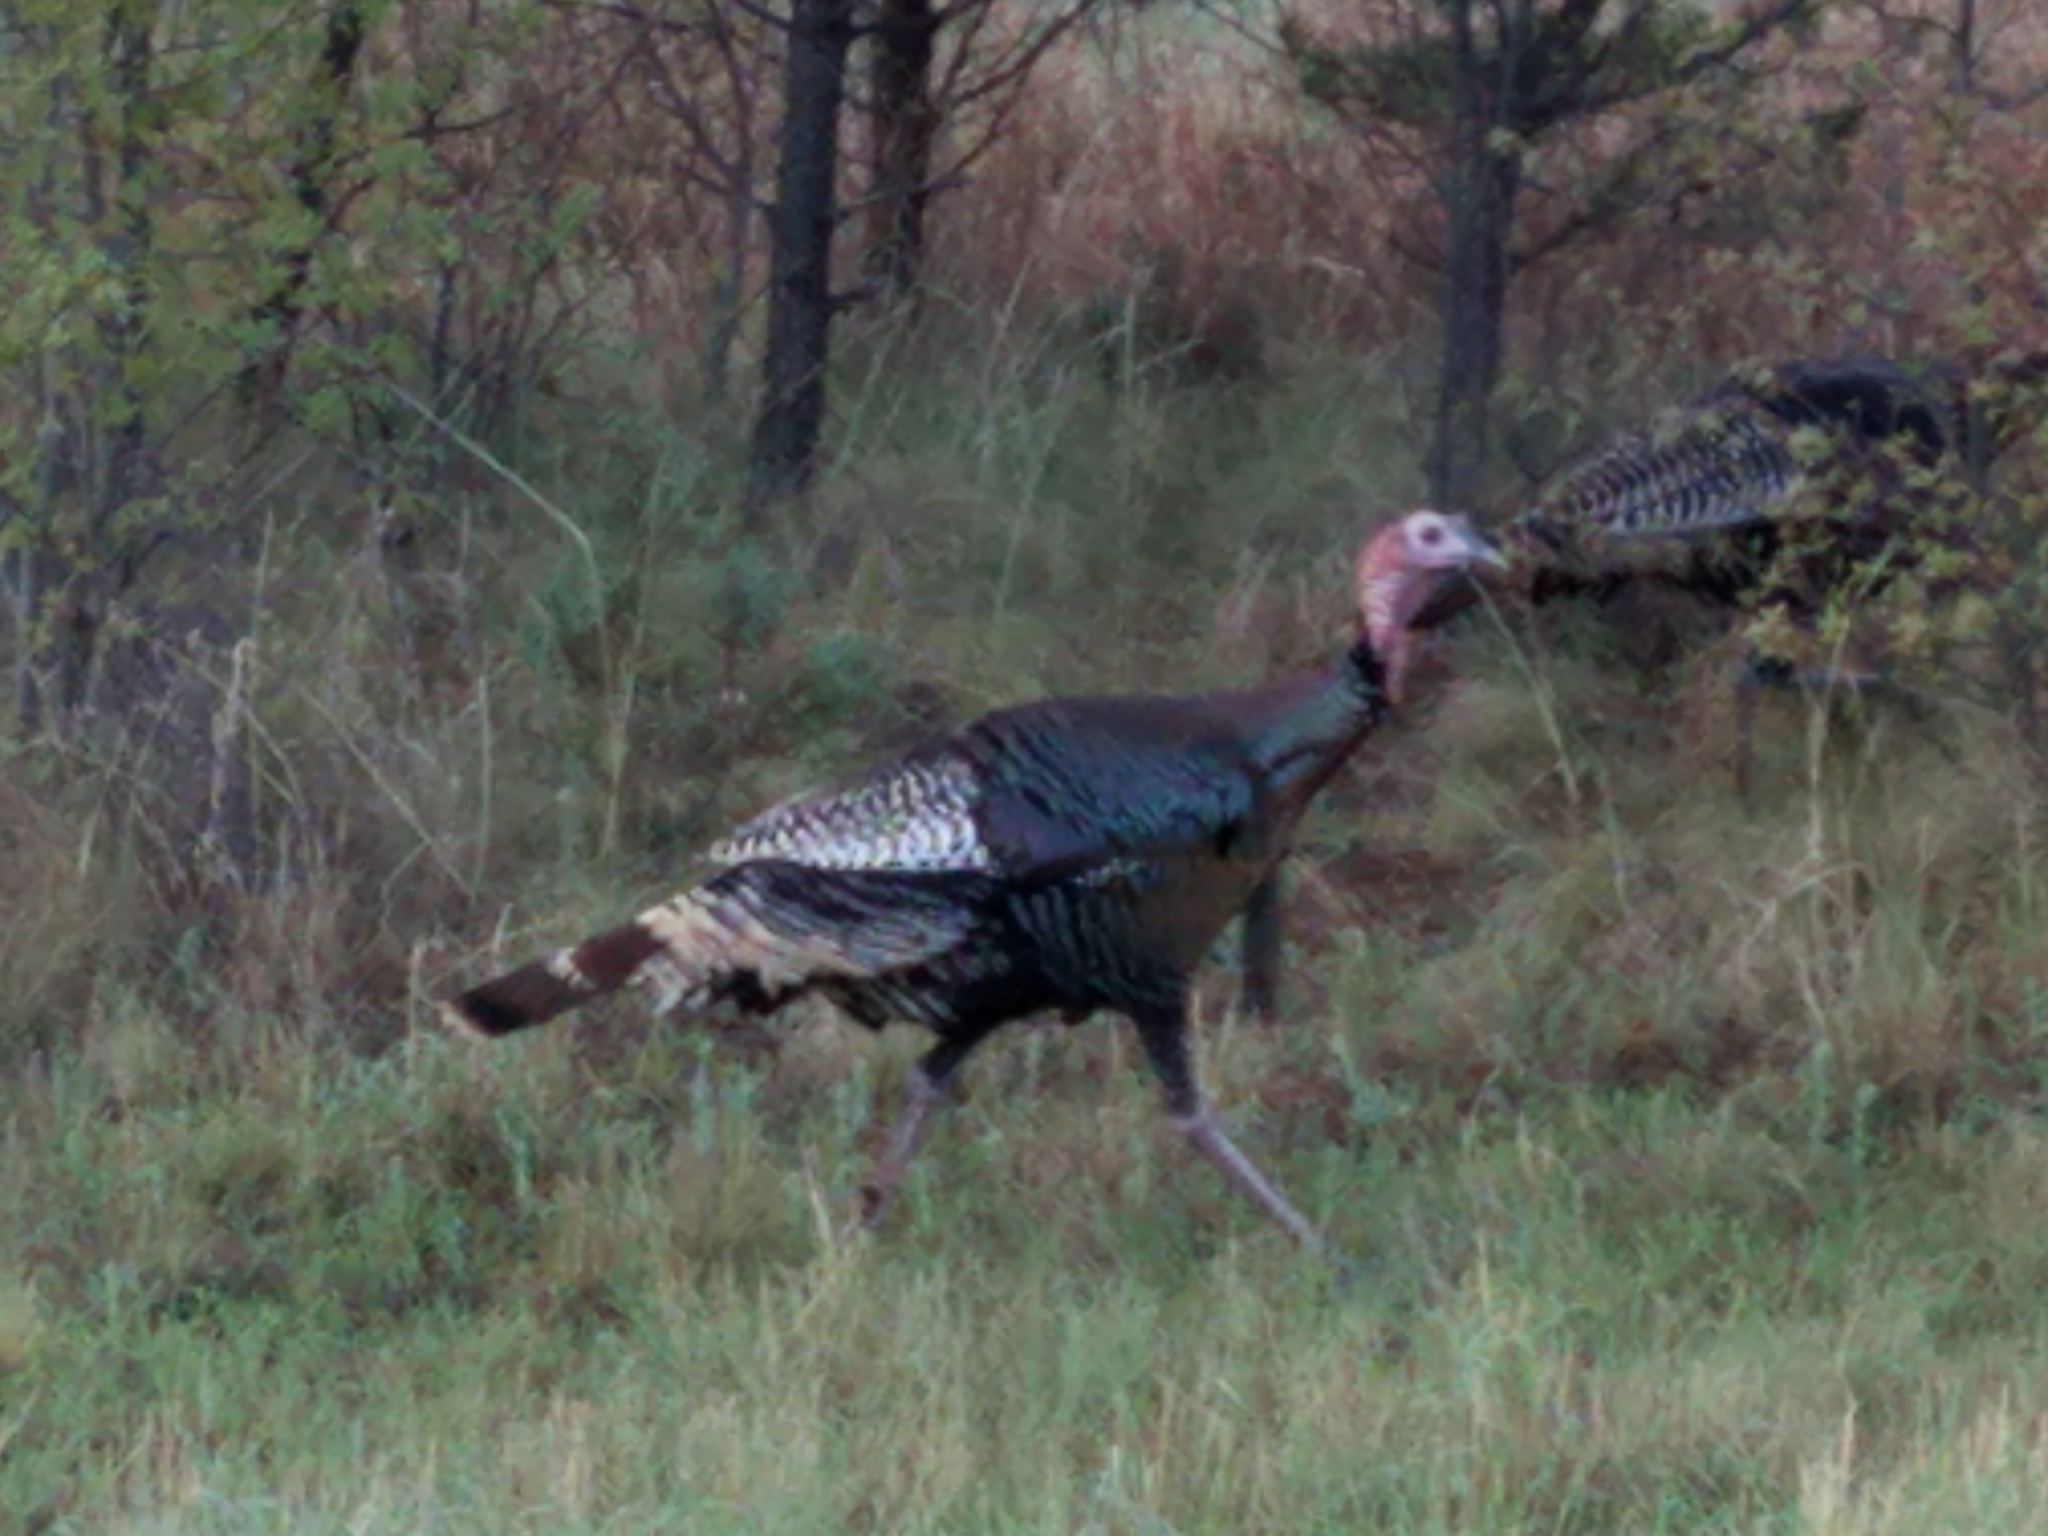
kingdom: Animalia
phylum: Chordata
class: Aves
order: Galliformes
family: Phasianidae
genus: Meleagris
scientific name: Meleagris gallopavo
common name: Wild turkey
